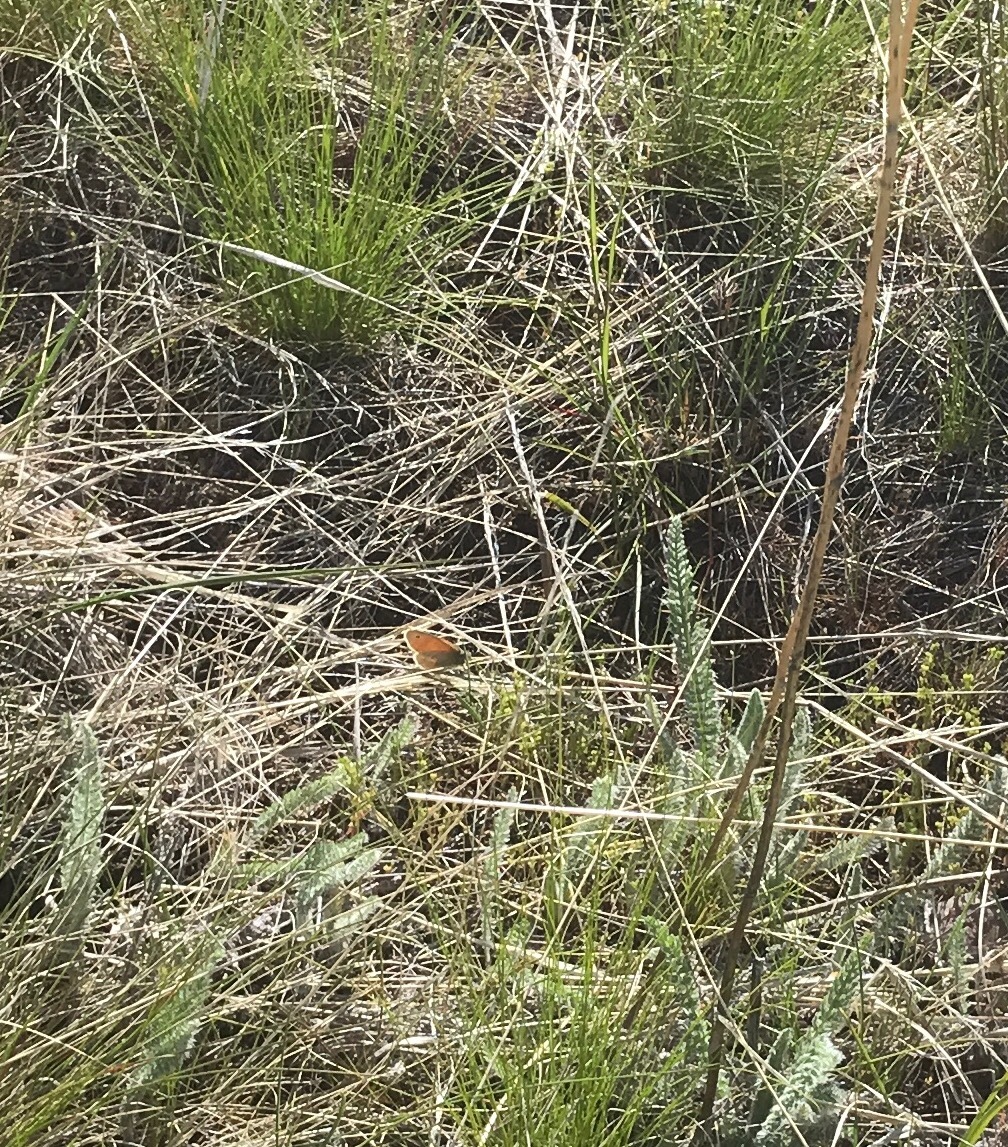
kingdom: Animalia
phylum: Arthropoda
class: Insecta
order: Lepidoptera
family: Nymphalidae
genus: Coenonympha
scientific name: Coenonympha california
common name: Common ringlet
